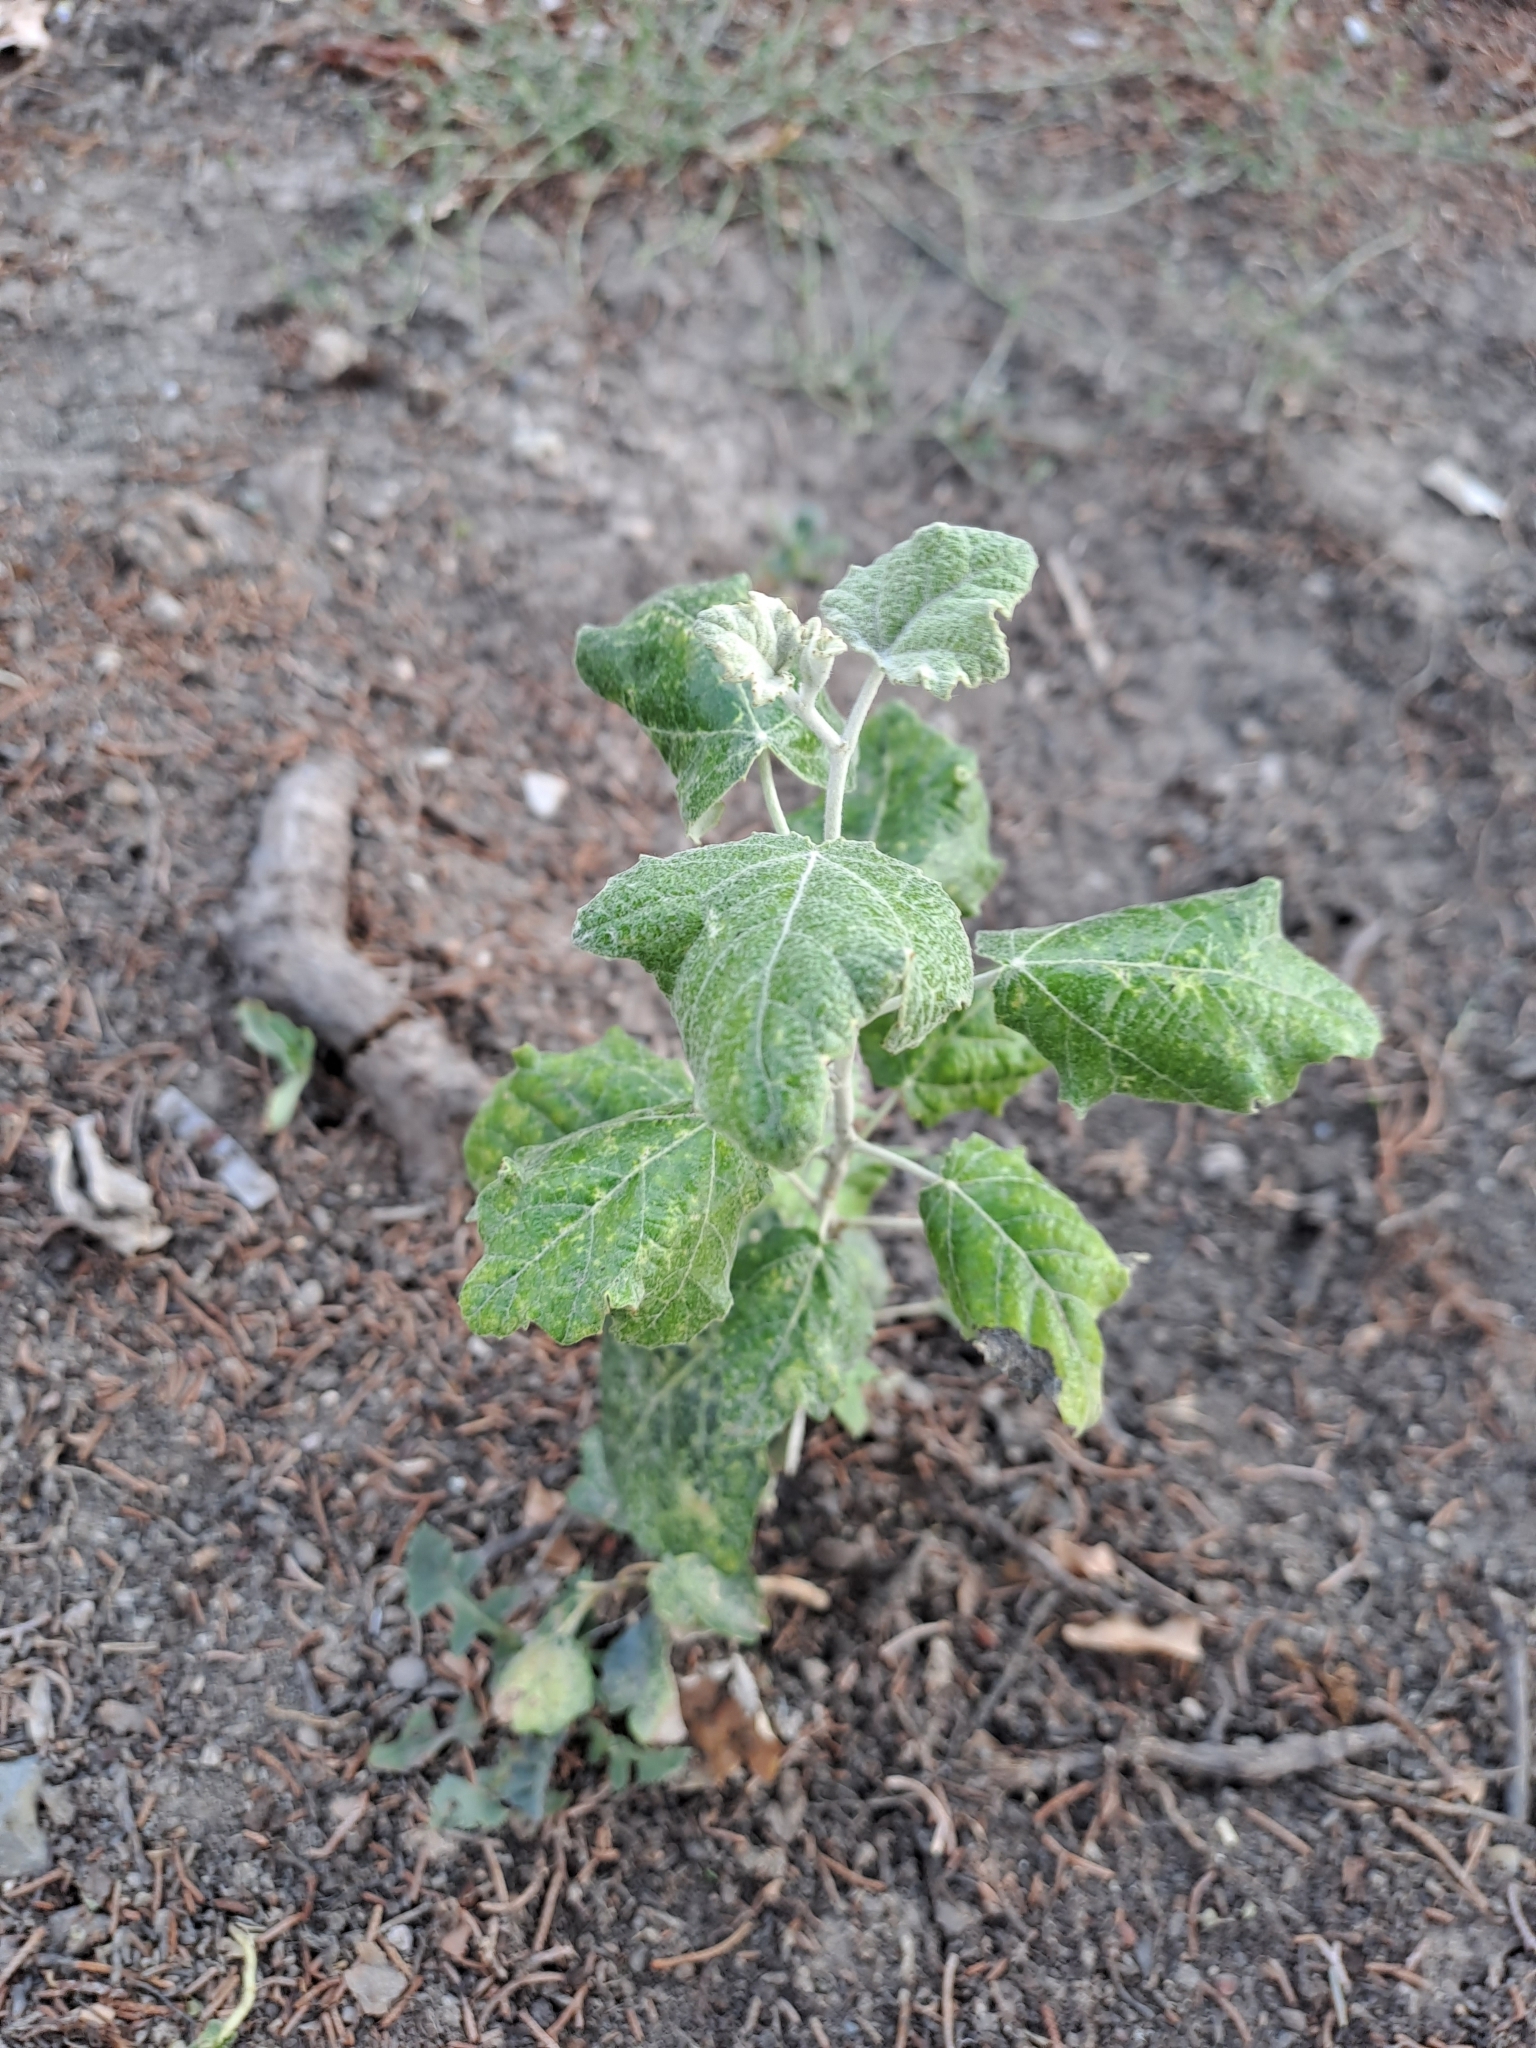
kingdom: Plantae
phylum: Tracheophyta
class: Magnoliopsida
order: Malpighiales
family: Salicaceae
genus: Populus
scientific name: Populus alba
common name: White poplar
